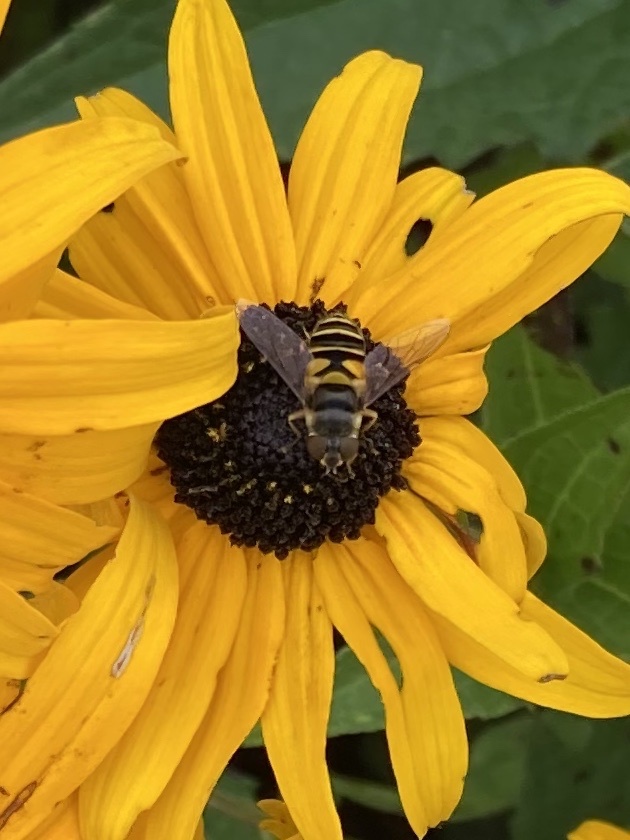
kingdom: Animalia
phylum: Arthropoda
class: Insecta
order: Diptera
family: Syrphidae
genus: Eristalis
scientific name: Eristalis transversa
